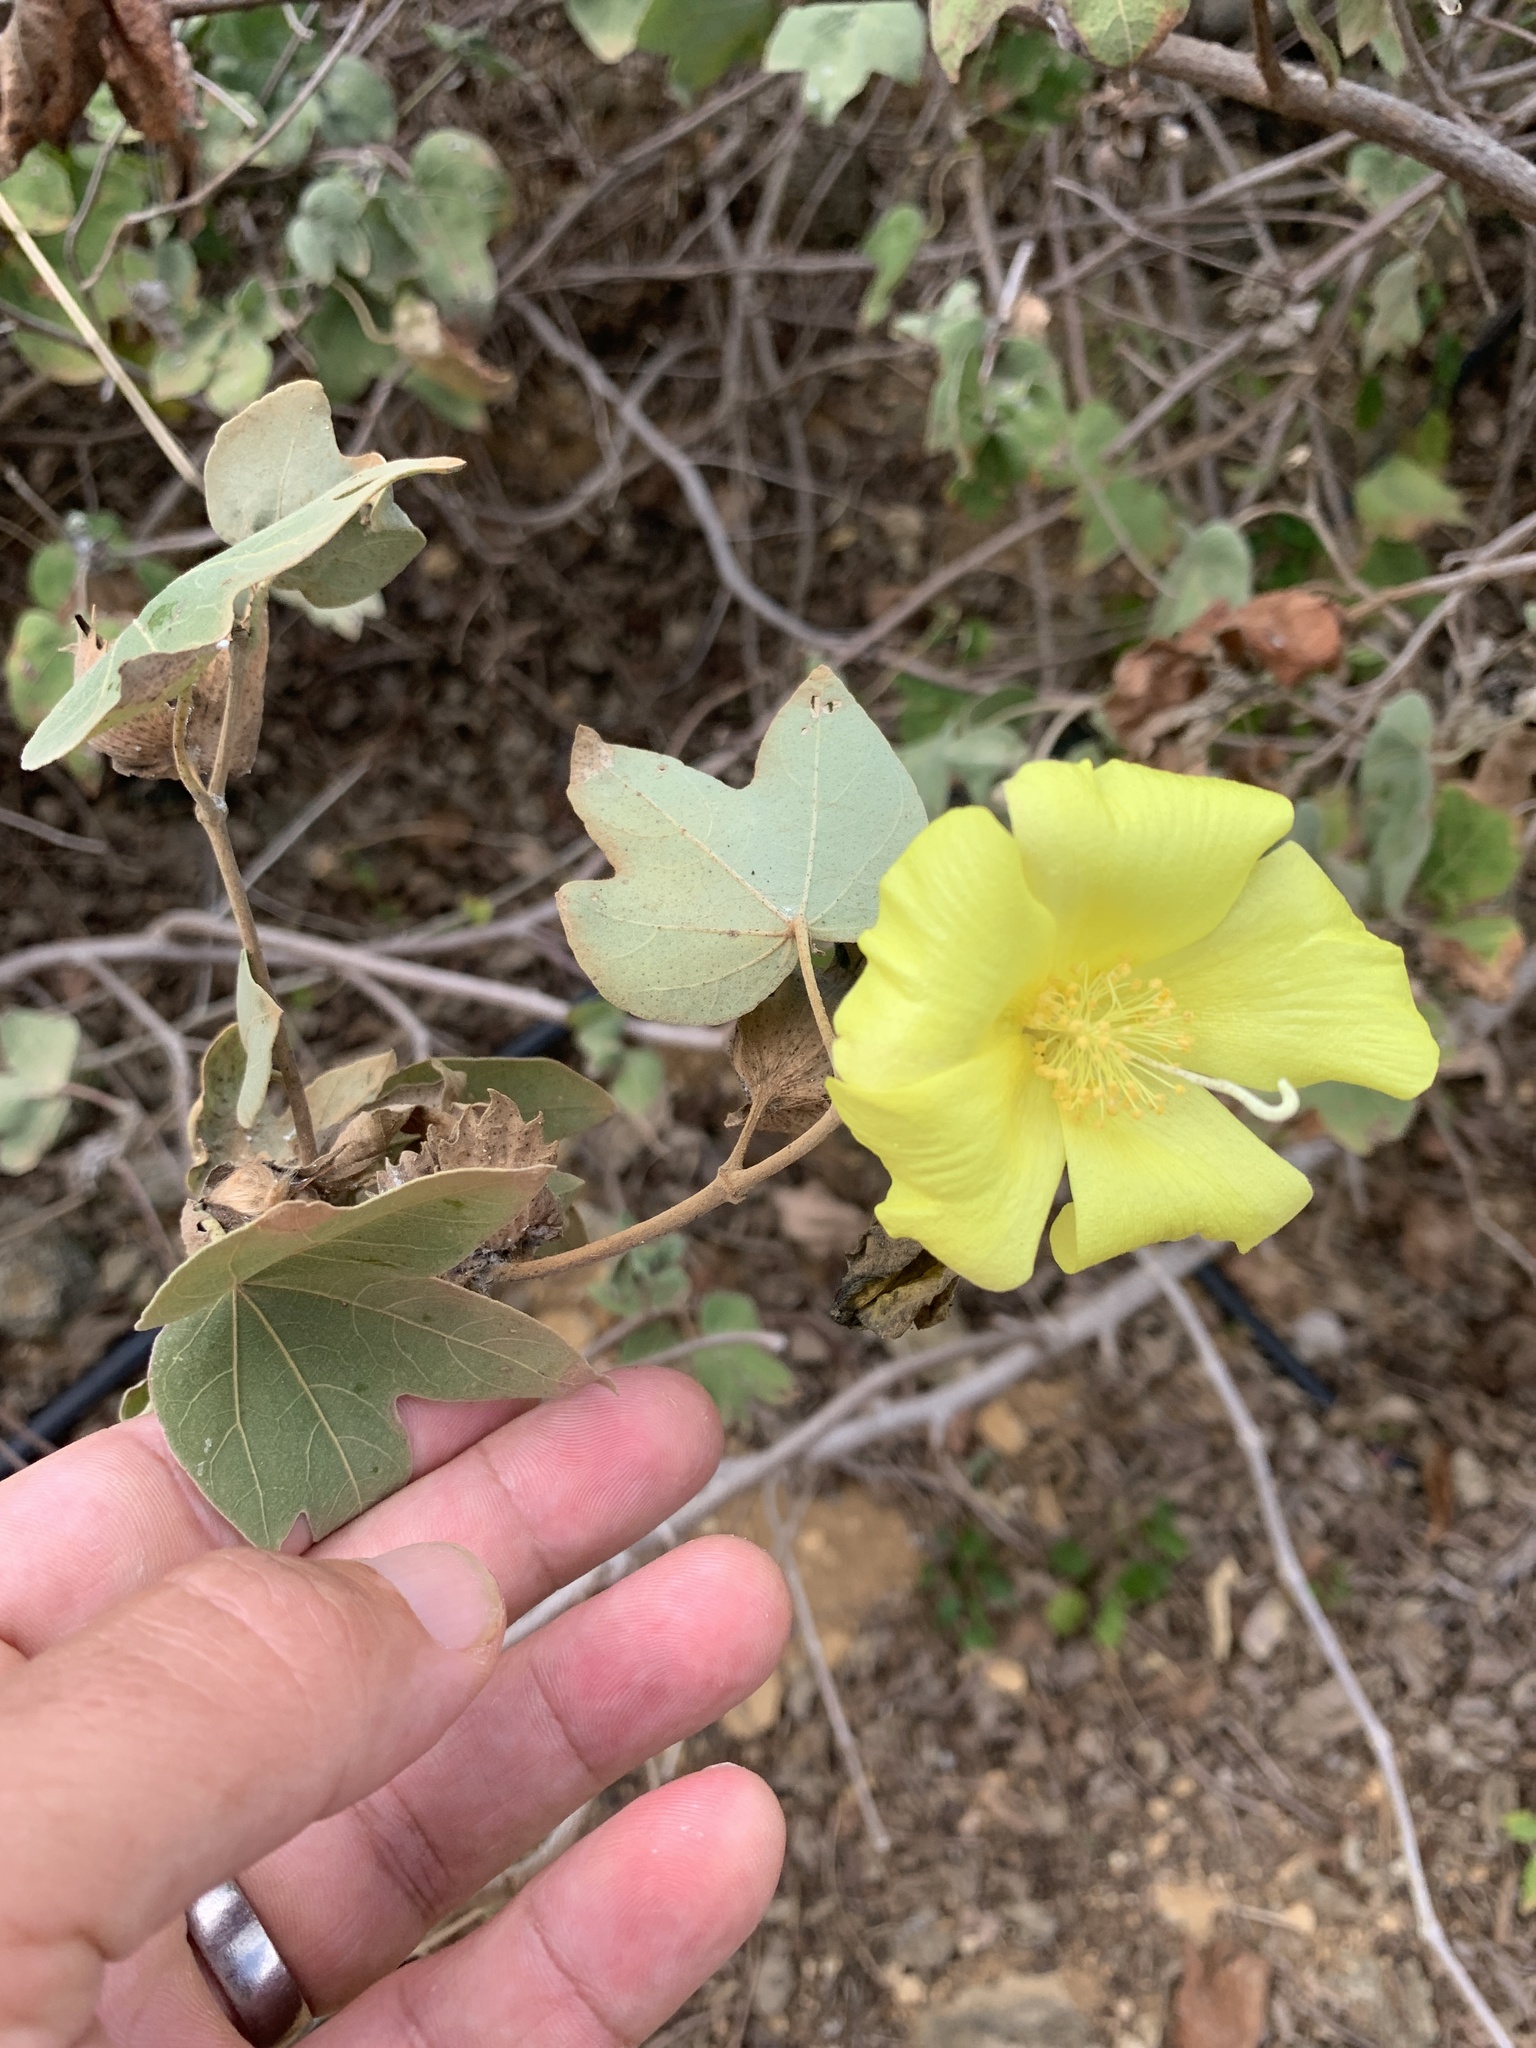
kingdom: Plantae
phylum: Tracheophyta
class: Magnoliopsida
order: Malvales
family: Malvaceae
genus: Gossypium
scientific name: Gossypium tomentosum
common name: Hawaiian cotton
